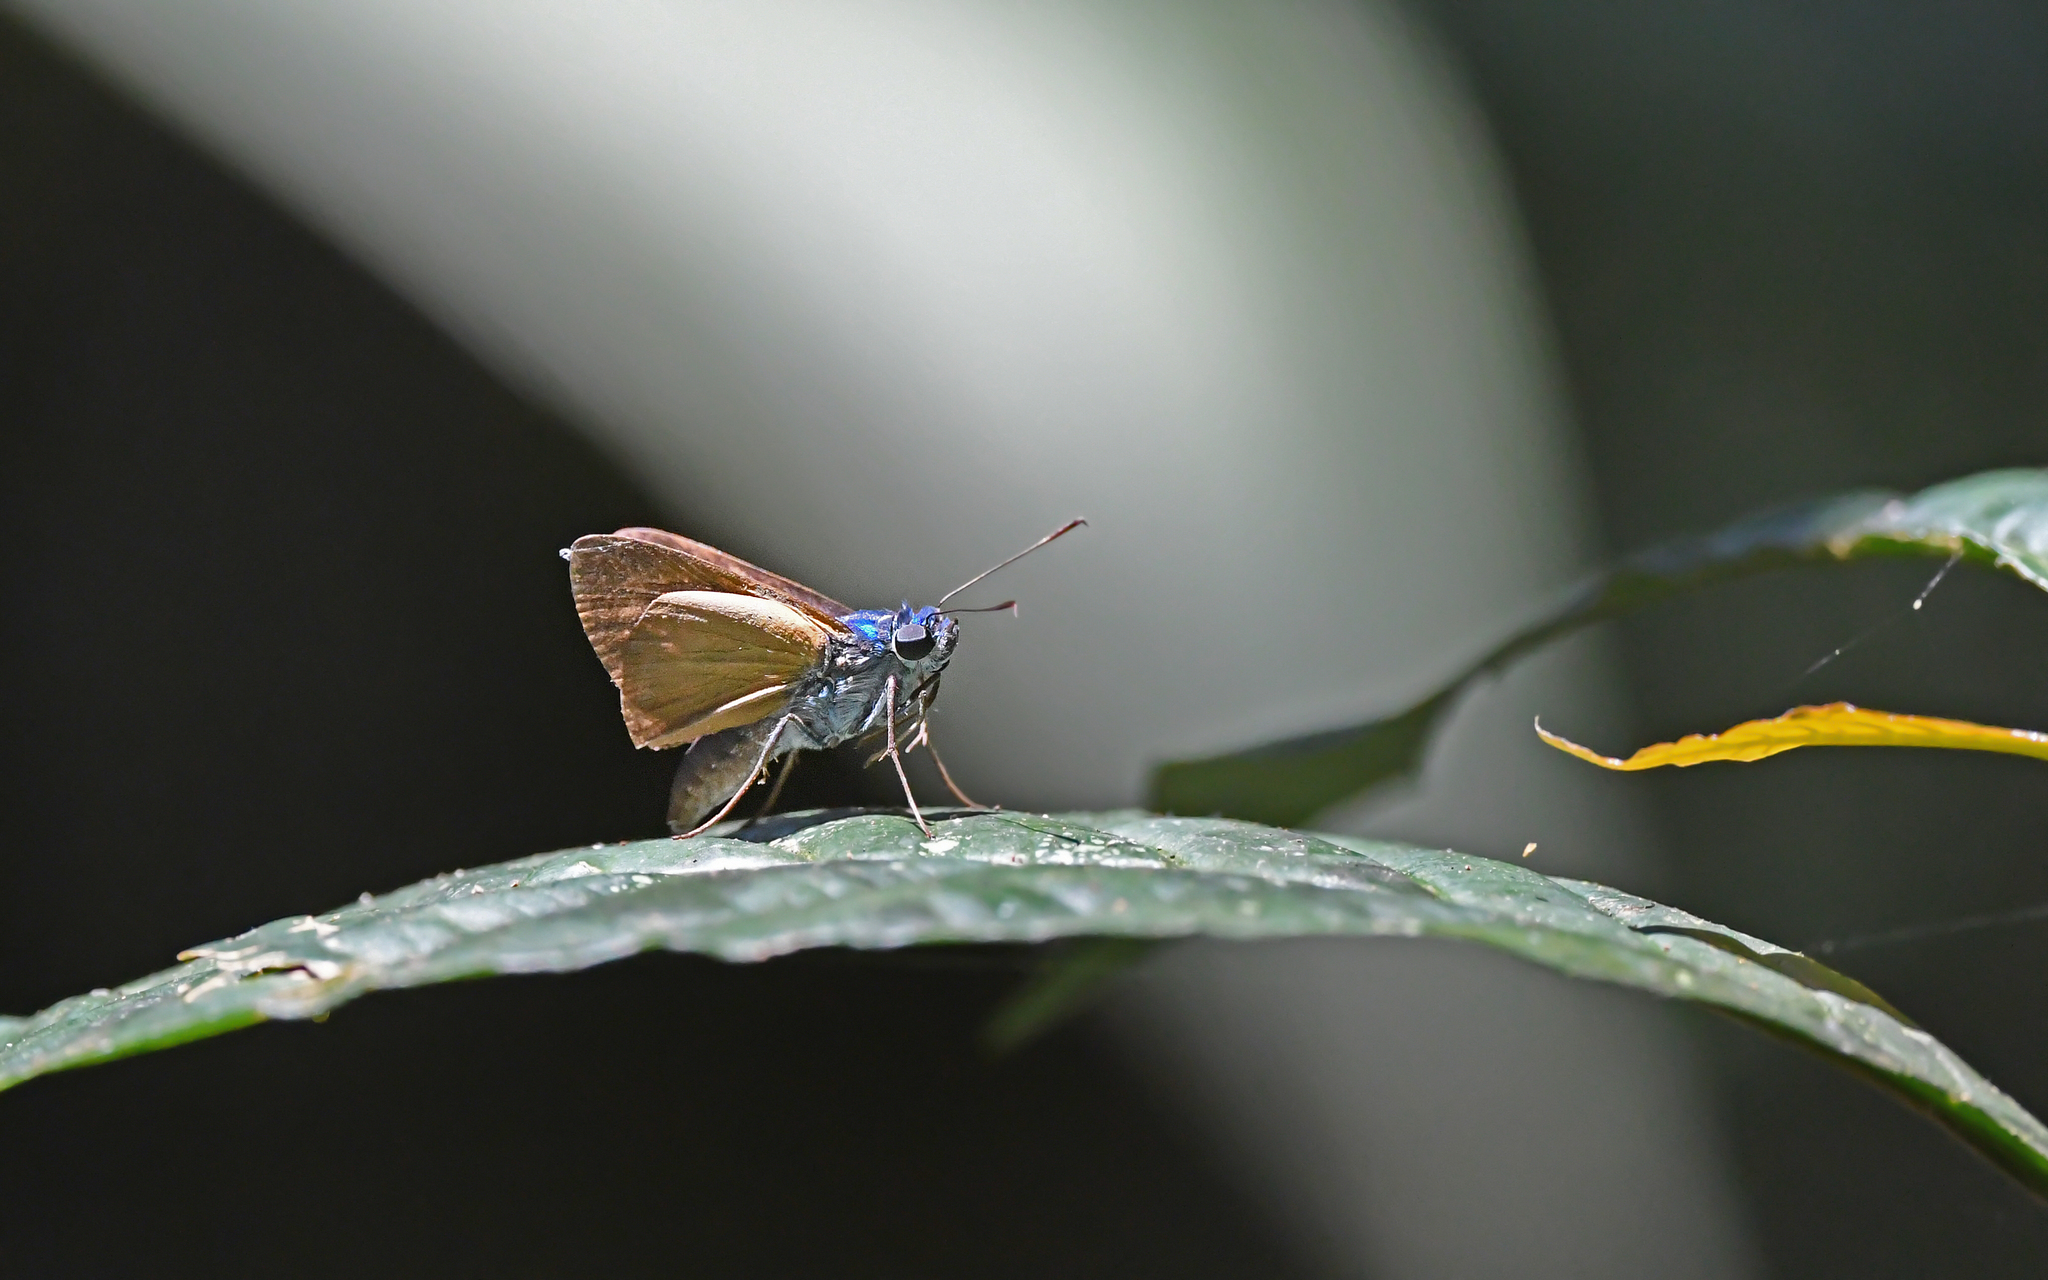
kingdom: Animalia
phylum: Arthropoda
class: Insecta
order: Lepidoptera
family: Hesperiidae
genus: Onophas
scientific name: Onophas columbaria
